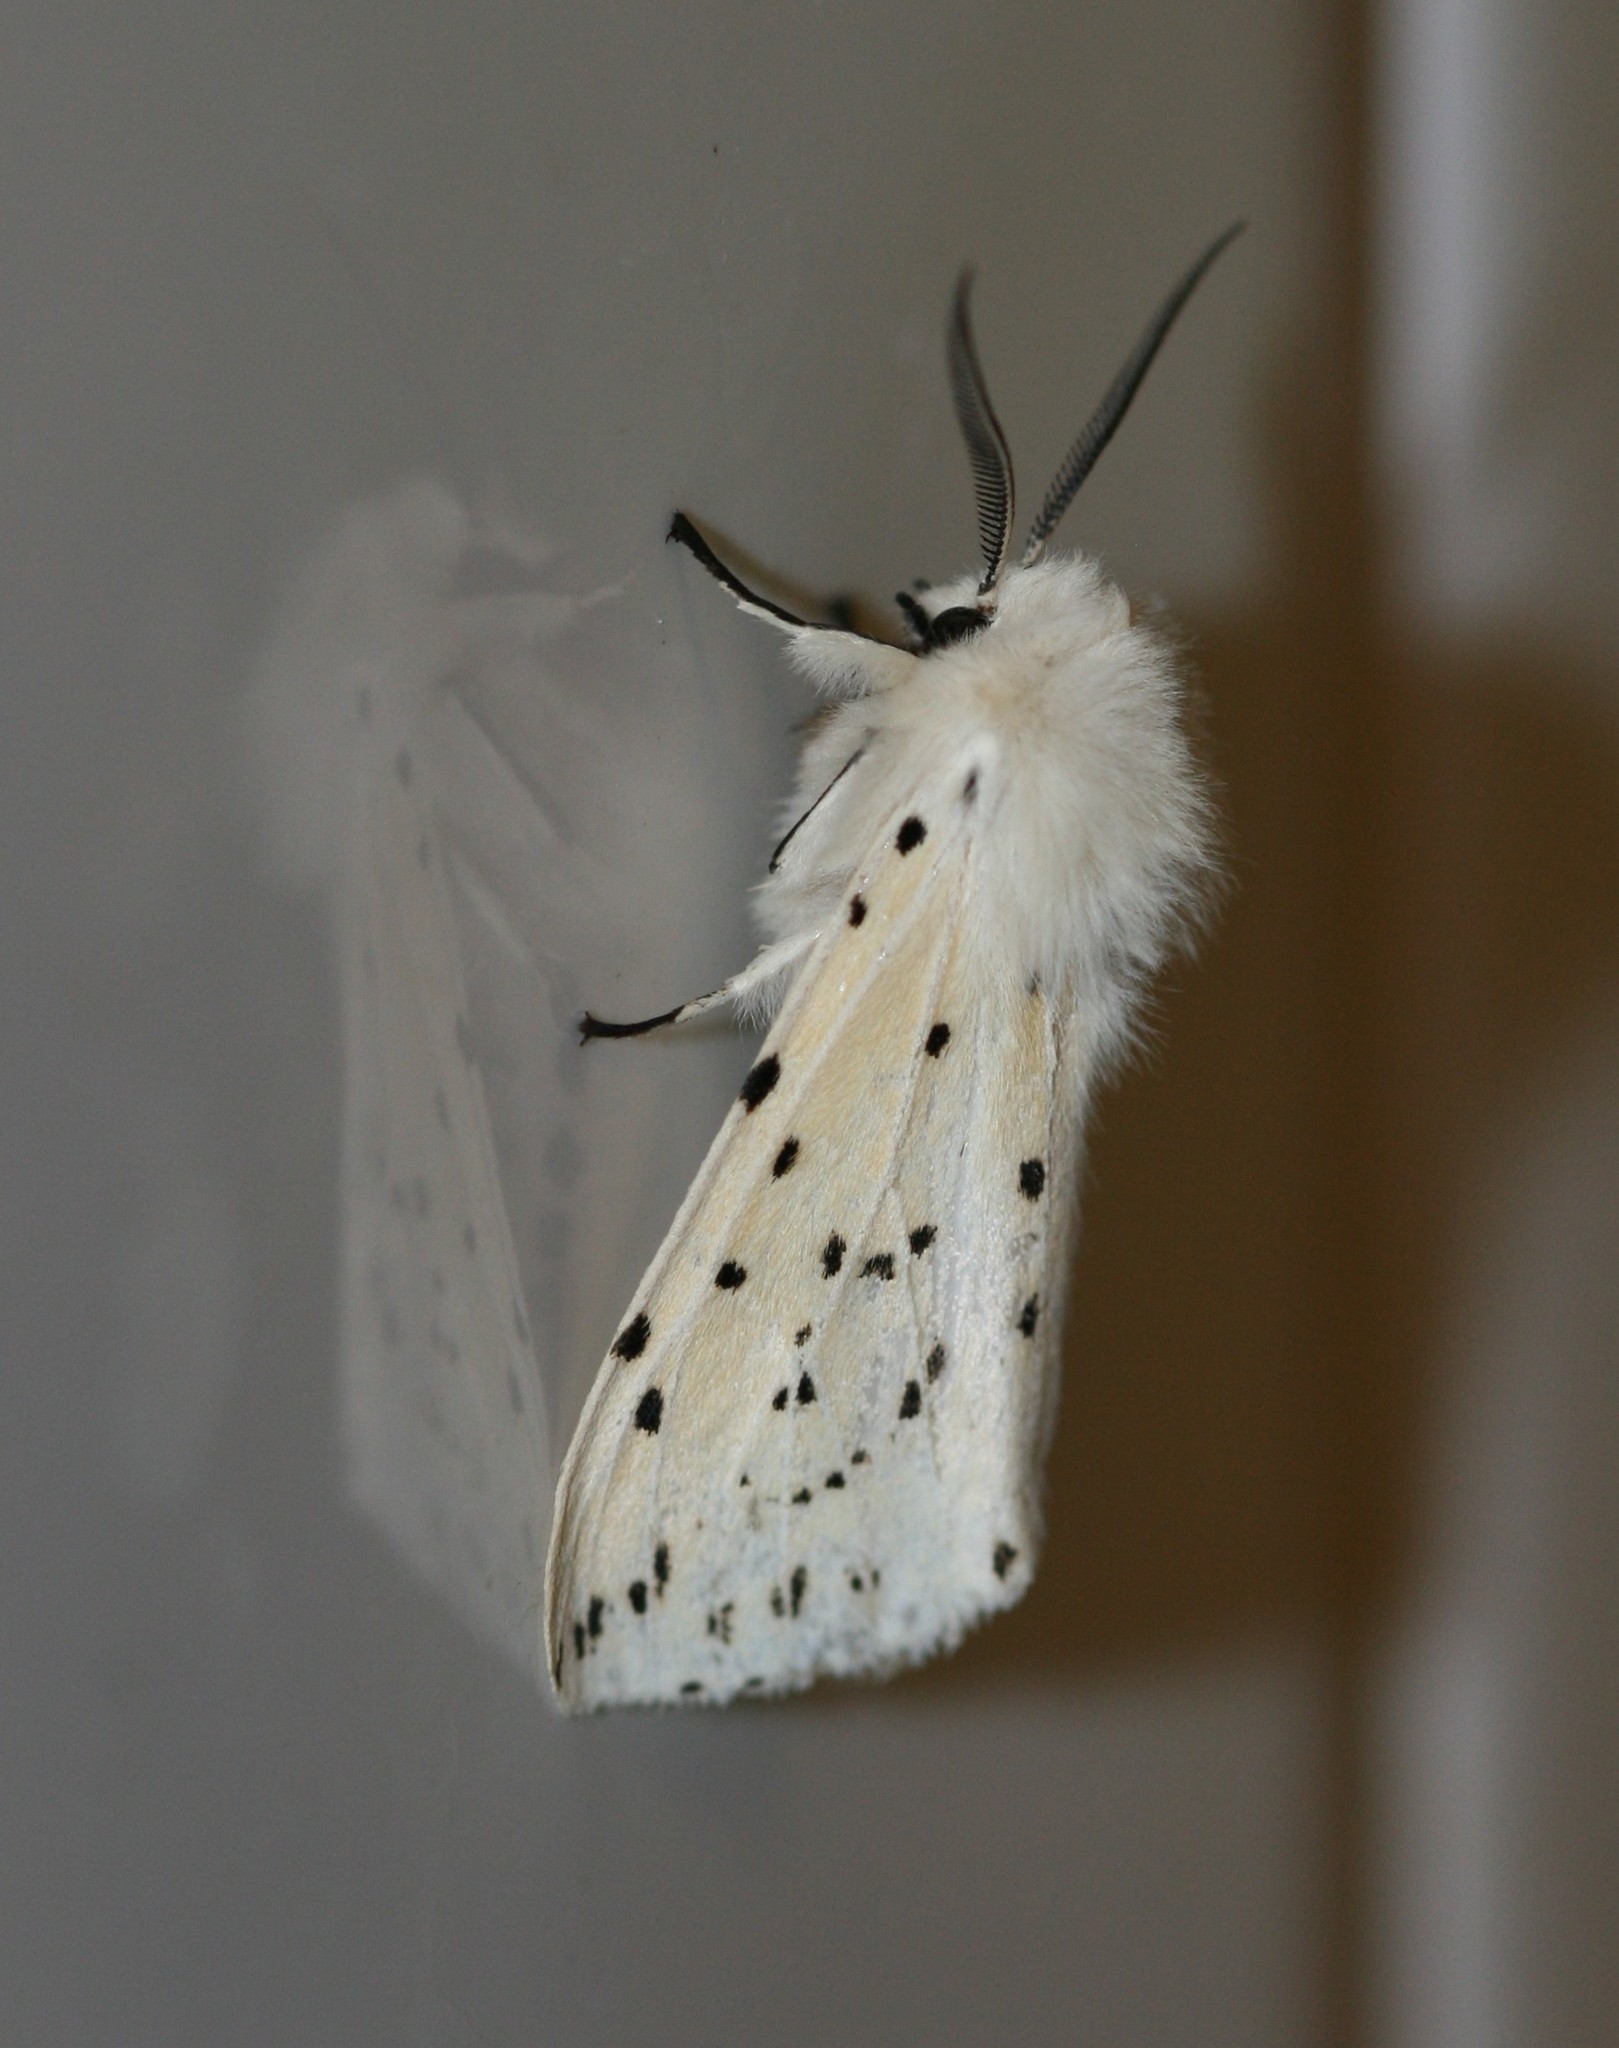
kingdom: Animalia
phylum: Arthropoda
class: Insecta
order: Lepidoptera
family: Erebidae
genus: Spilosoma
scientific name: Spilosoma lubricipeda
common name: White ermine
